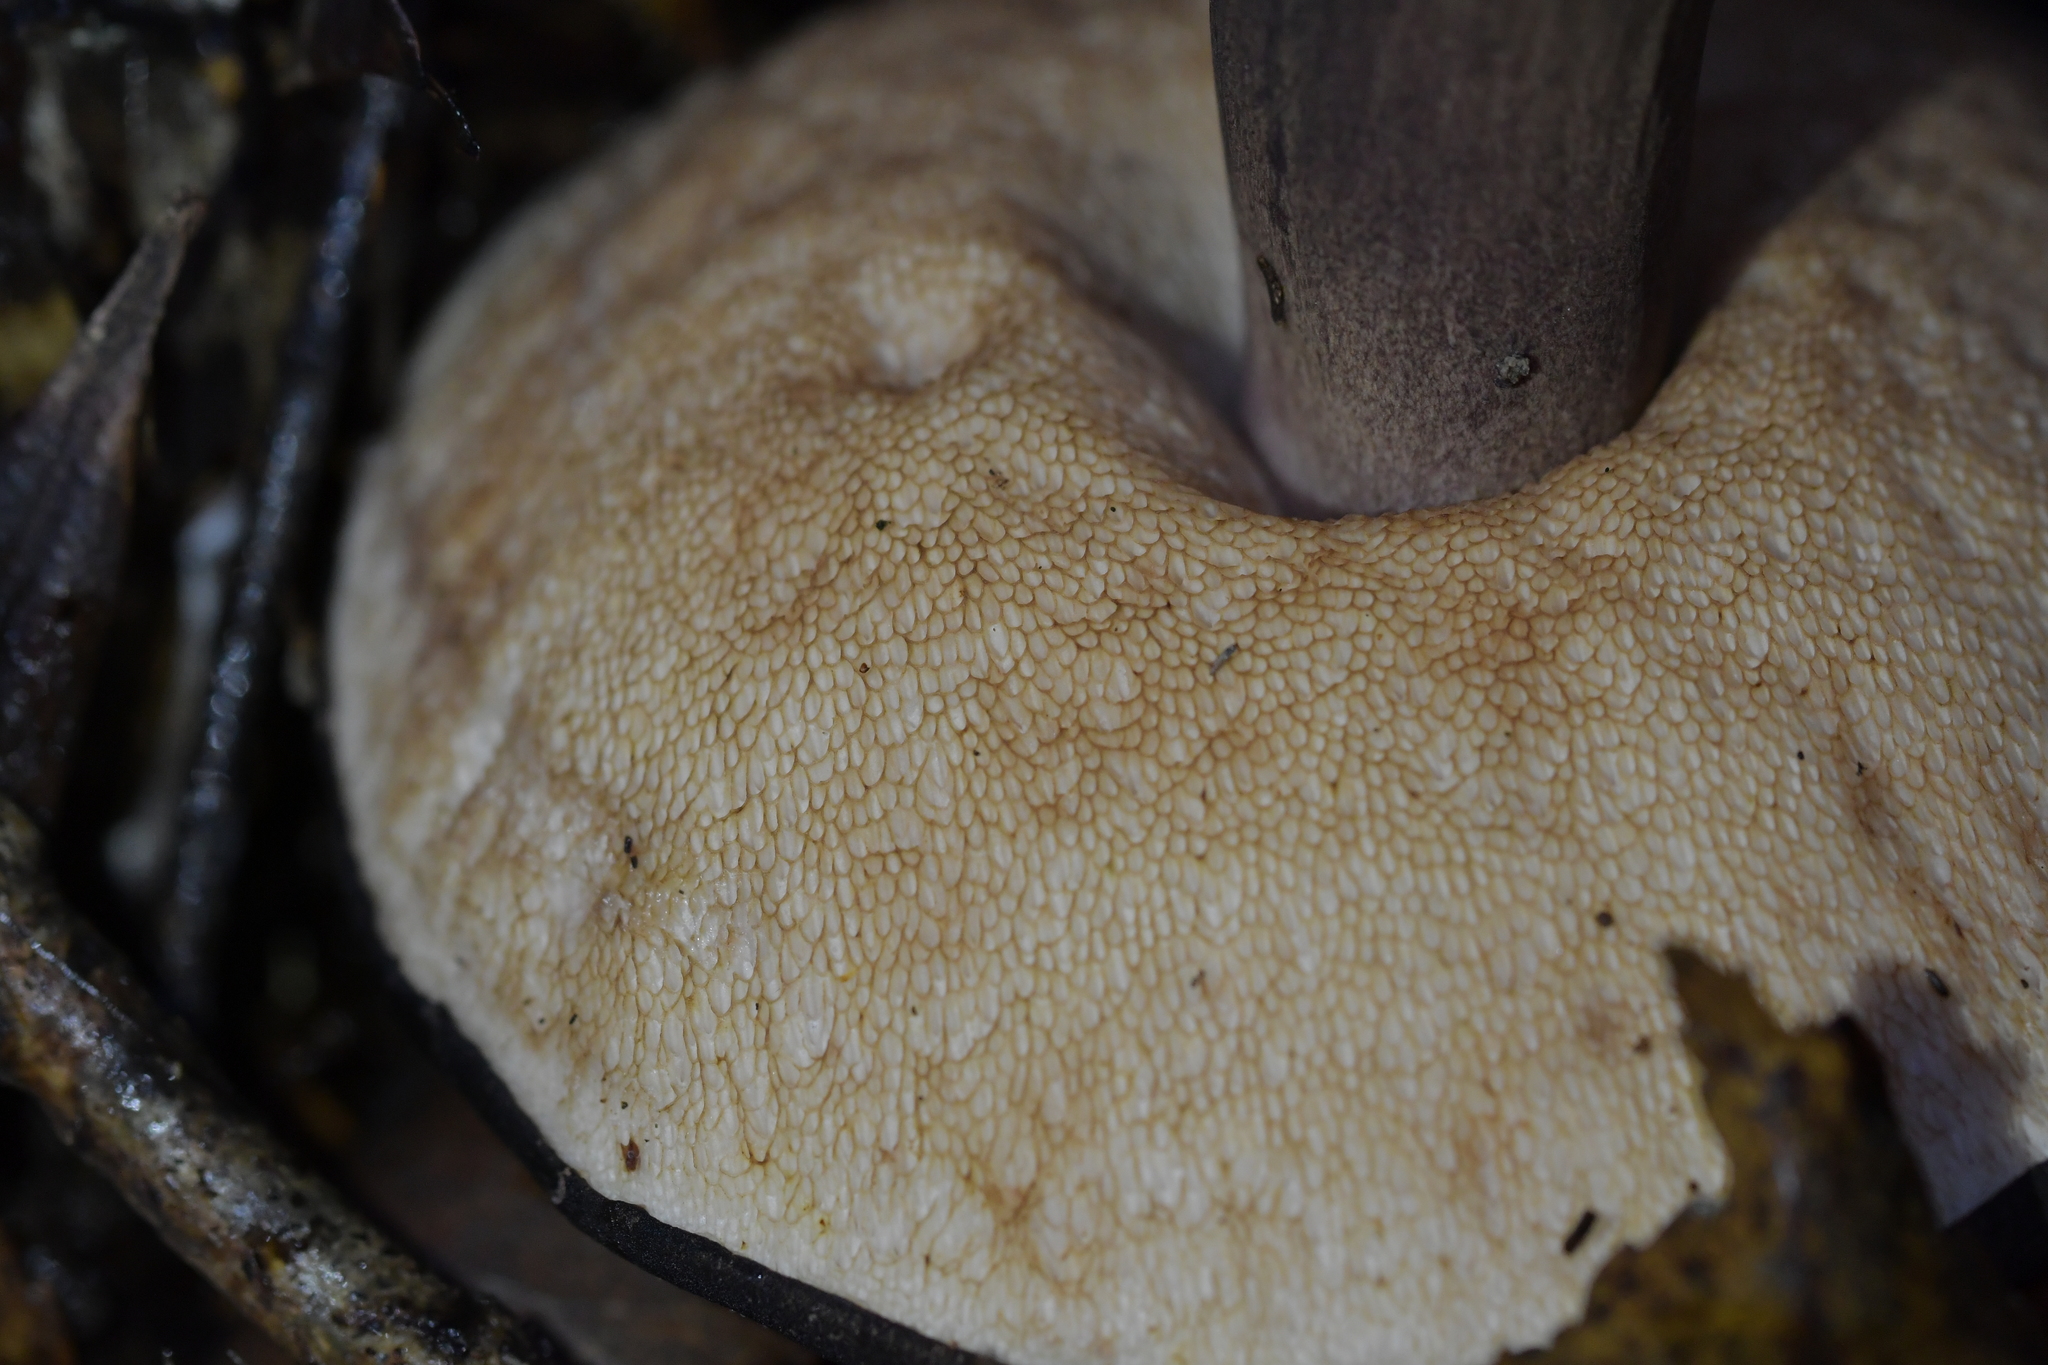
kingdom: Fungi
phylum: Basidiomycota
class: Agaricomycetes
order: Boletales
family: Boletaceae
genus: Porphyrellus
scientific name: Porphyrellus formosus
